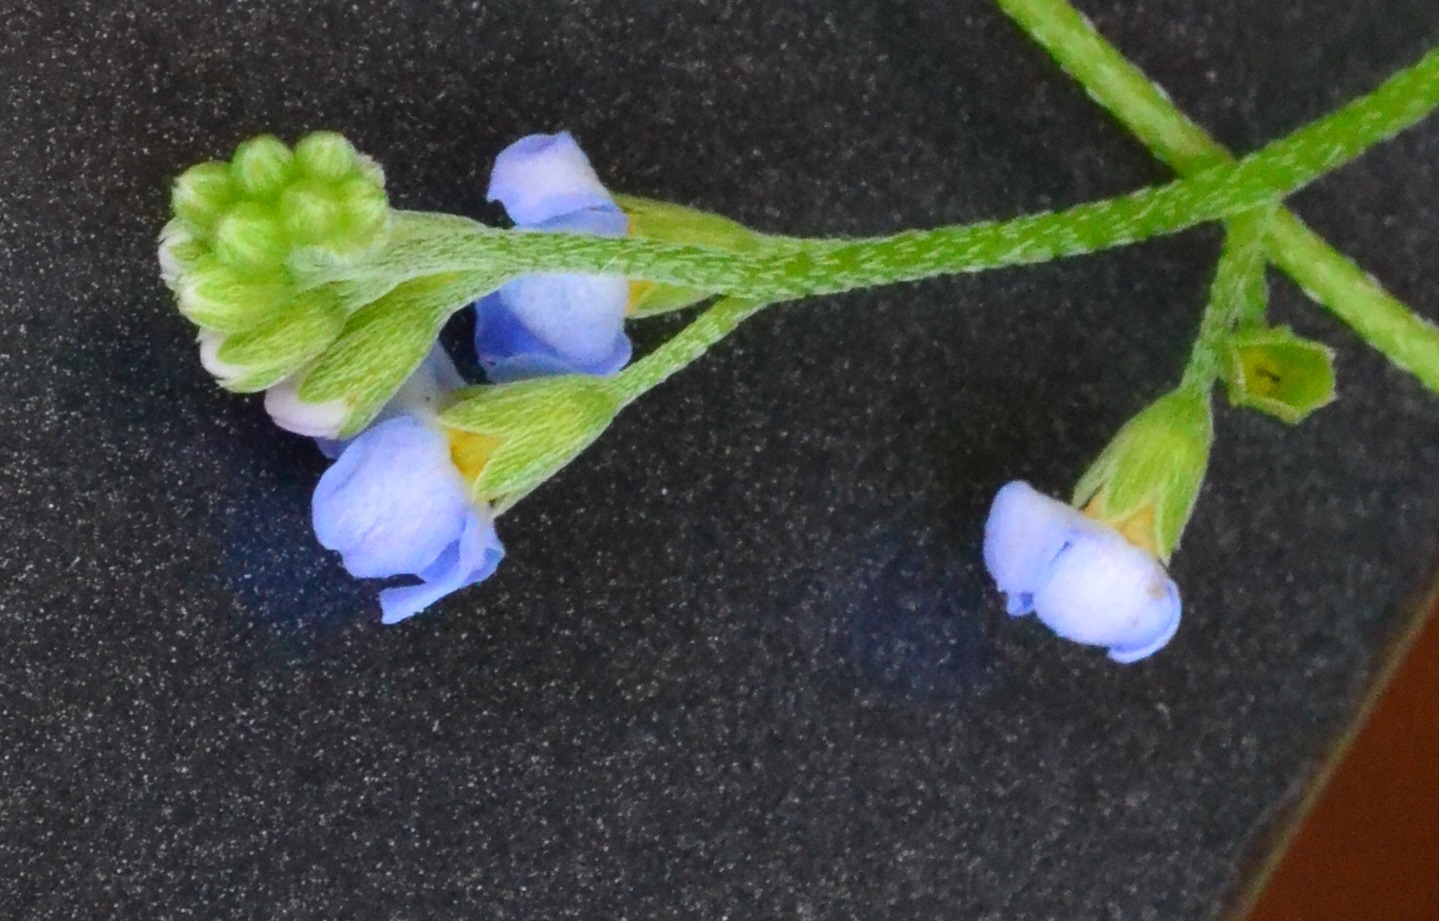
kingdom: Plantae
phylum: Tracheophyta
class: Magnoliopsida
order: Boraginales
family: Boraginaceae
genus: Myosotis
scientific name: Myosotis scorpioides
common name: Water forget-me-not
